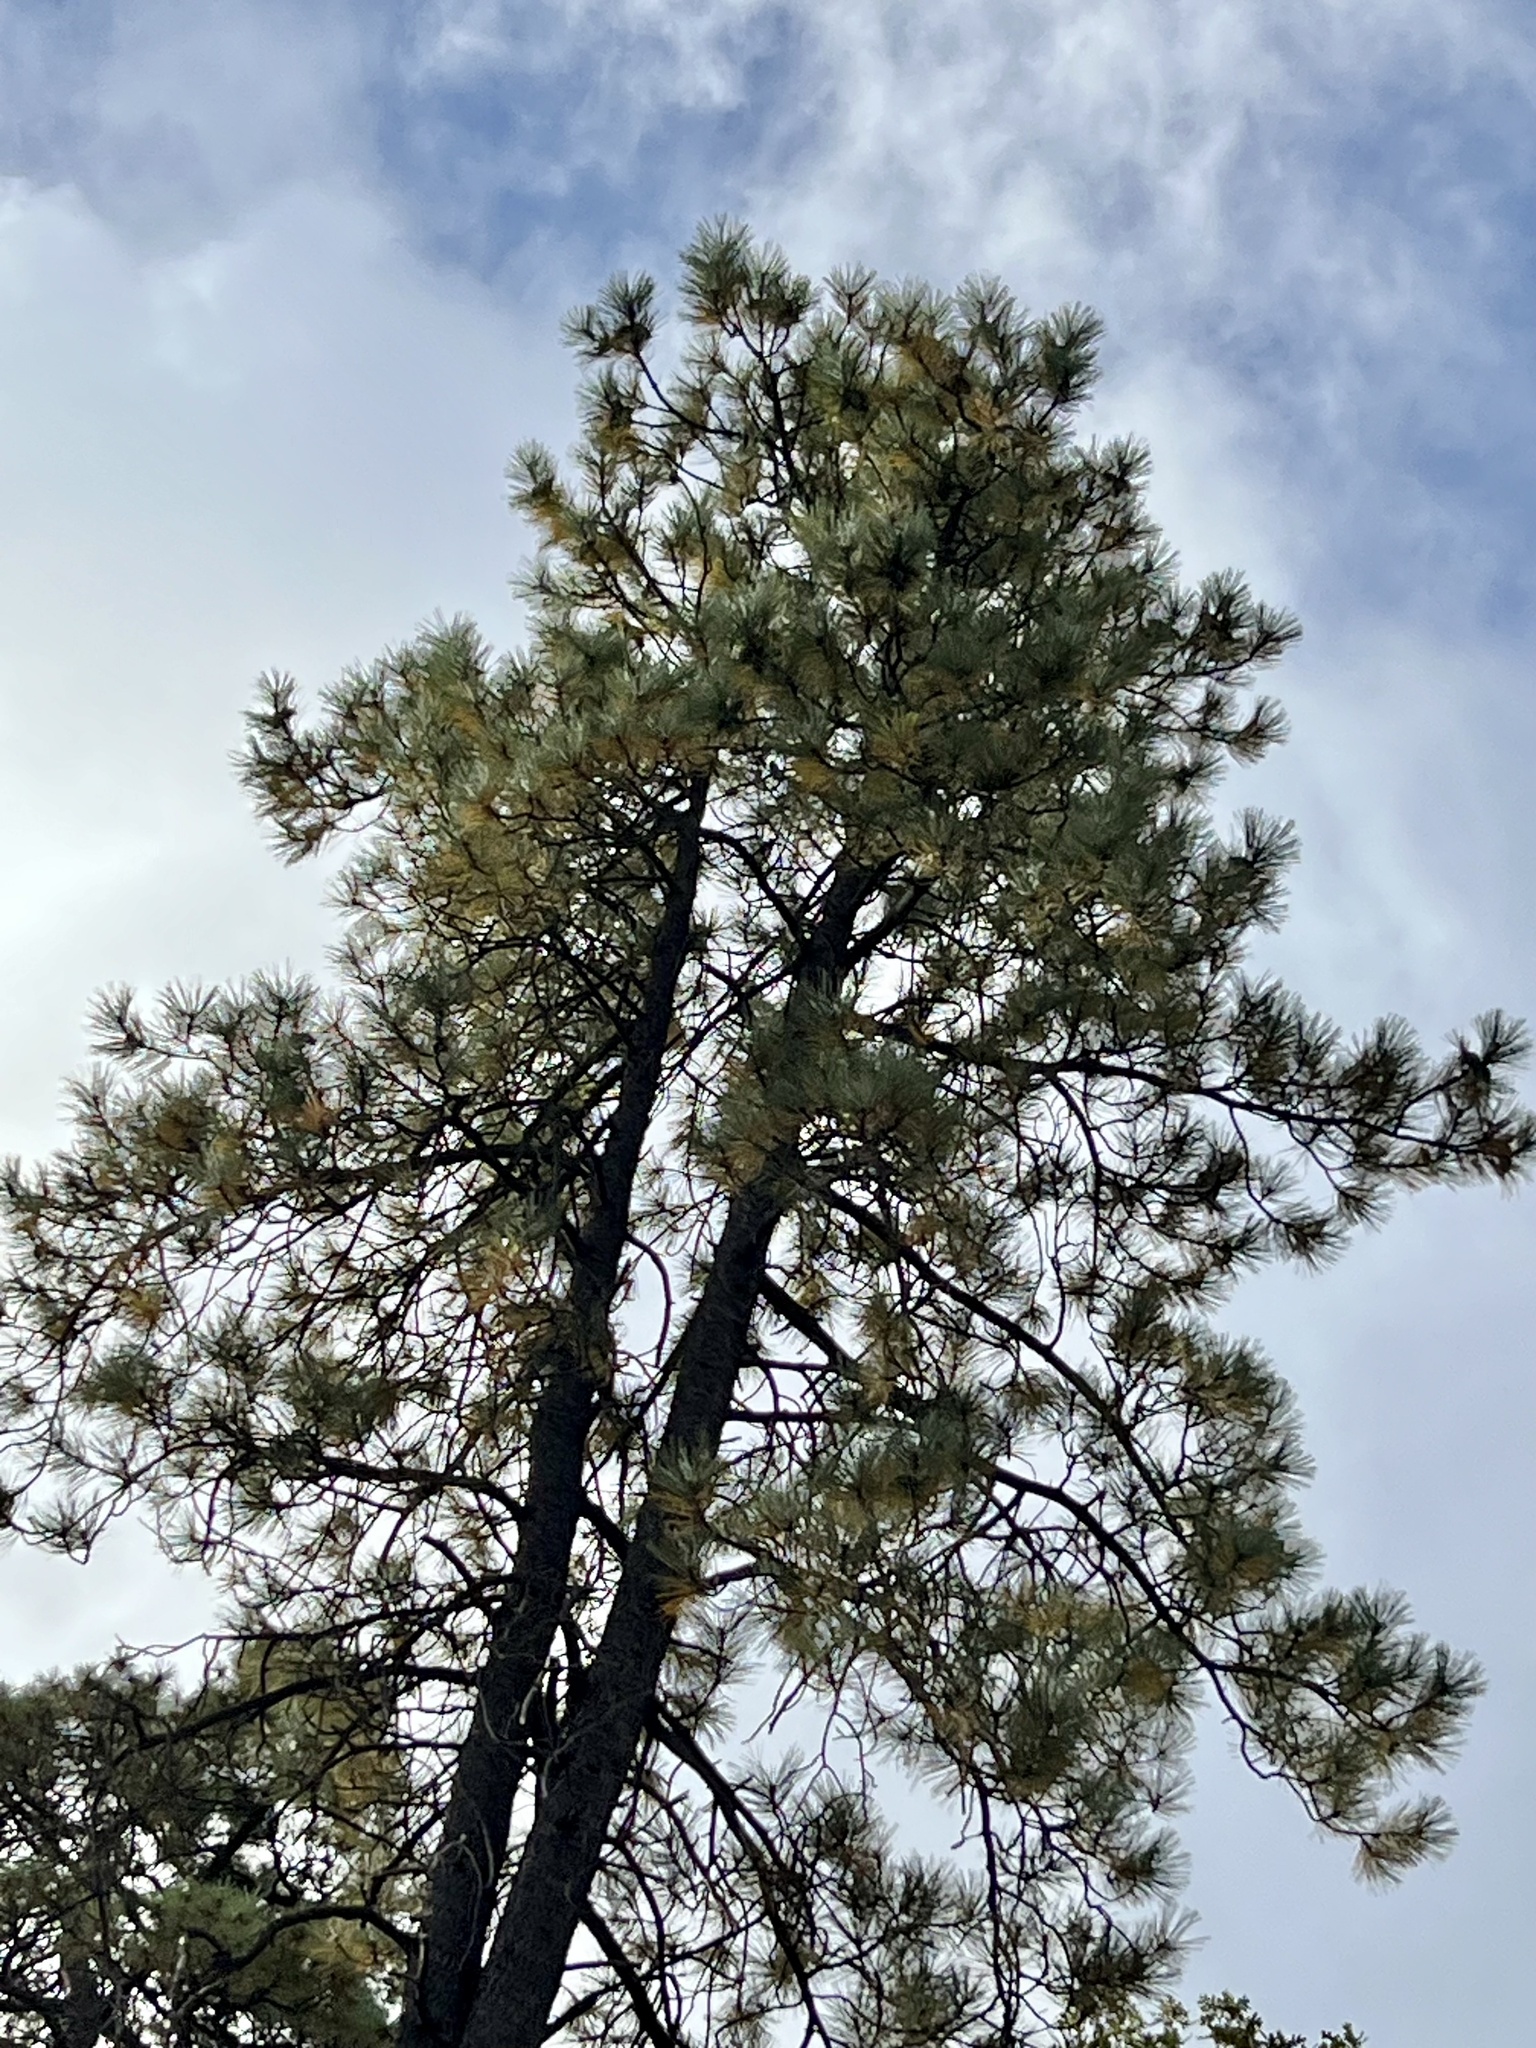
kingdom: Plantae
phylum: Tracheophyta
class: Pinopsida
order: Pinales
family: Pinaceae
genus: Pinus
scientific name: Pinus ponderosa
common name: Western yellow-pine
